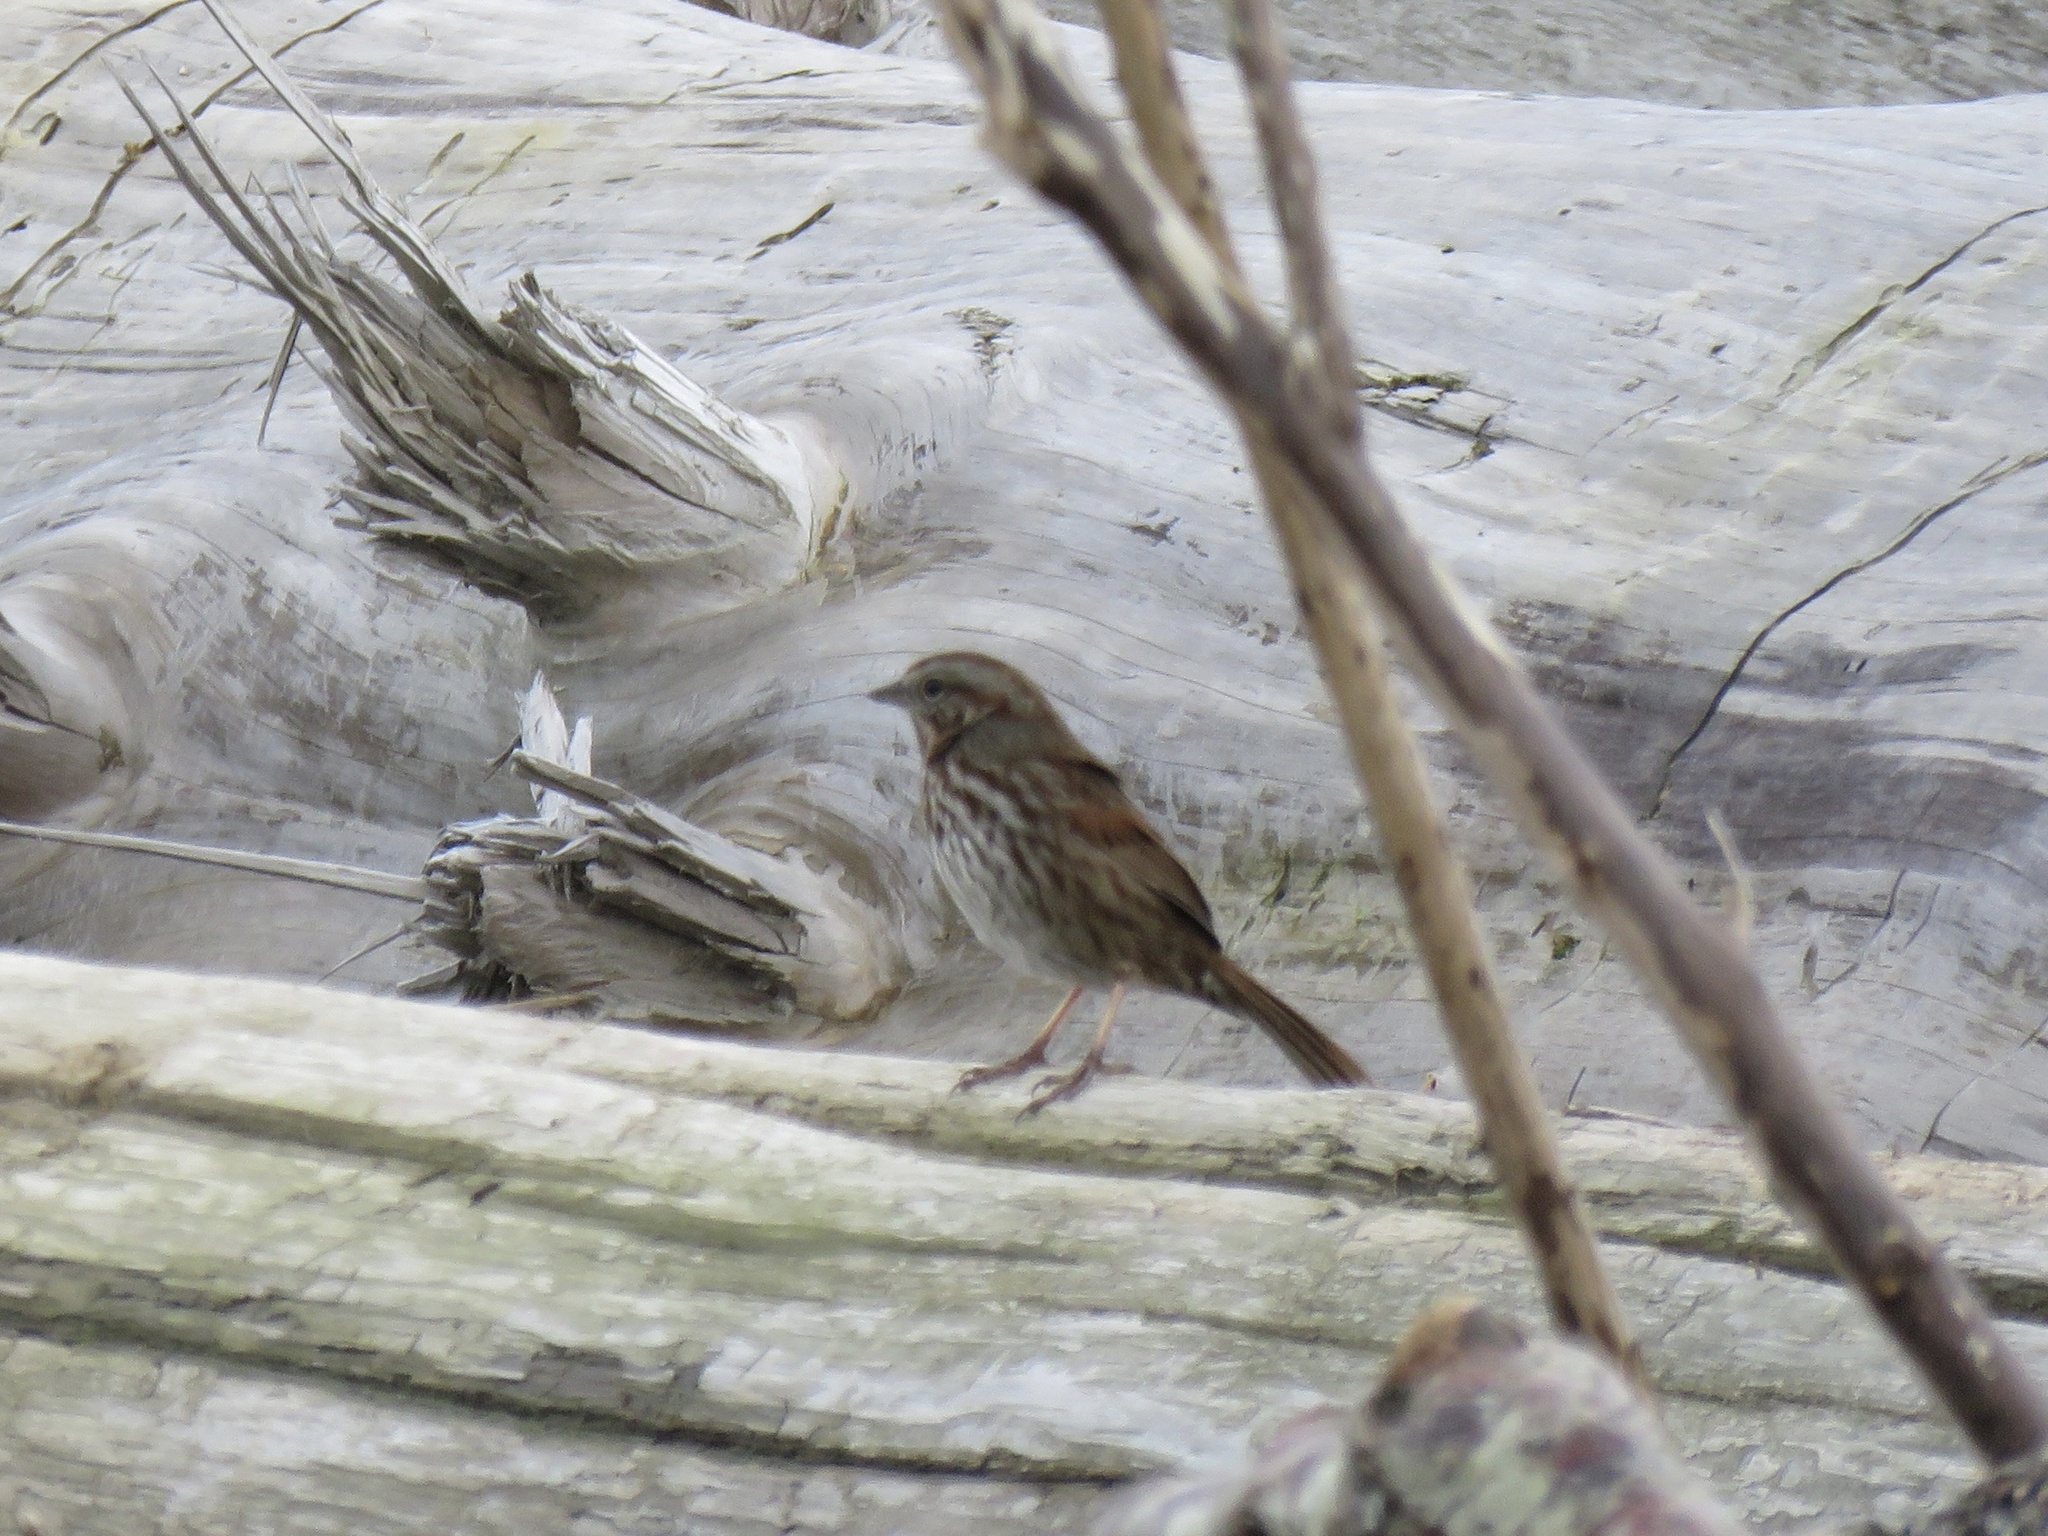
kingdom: Animalia
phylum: Chordata
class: Aves
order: Passeriformes
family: Passerellidae
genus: Melospiza
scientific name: Melospiza melodia
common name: Song sparrow
